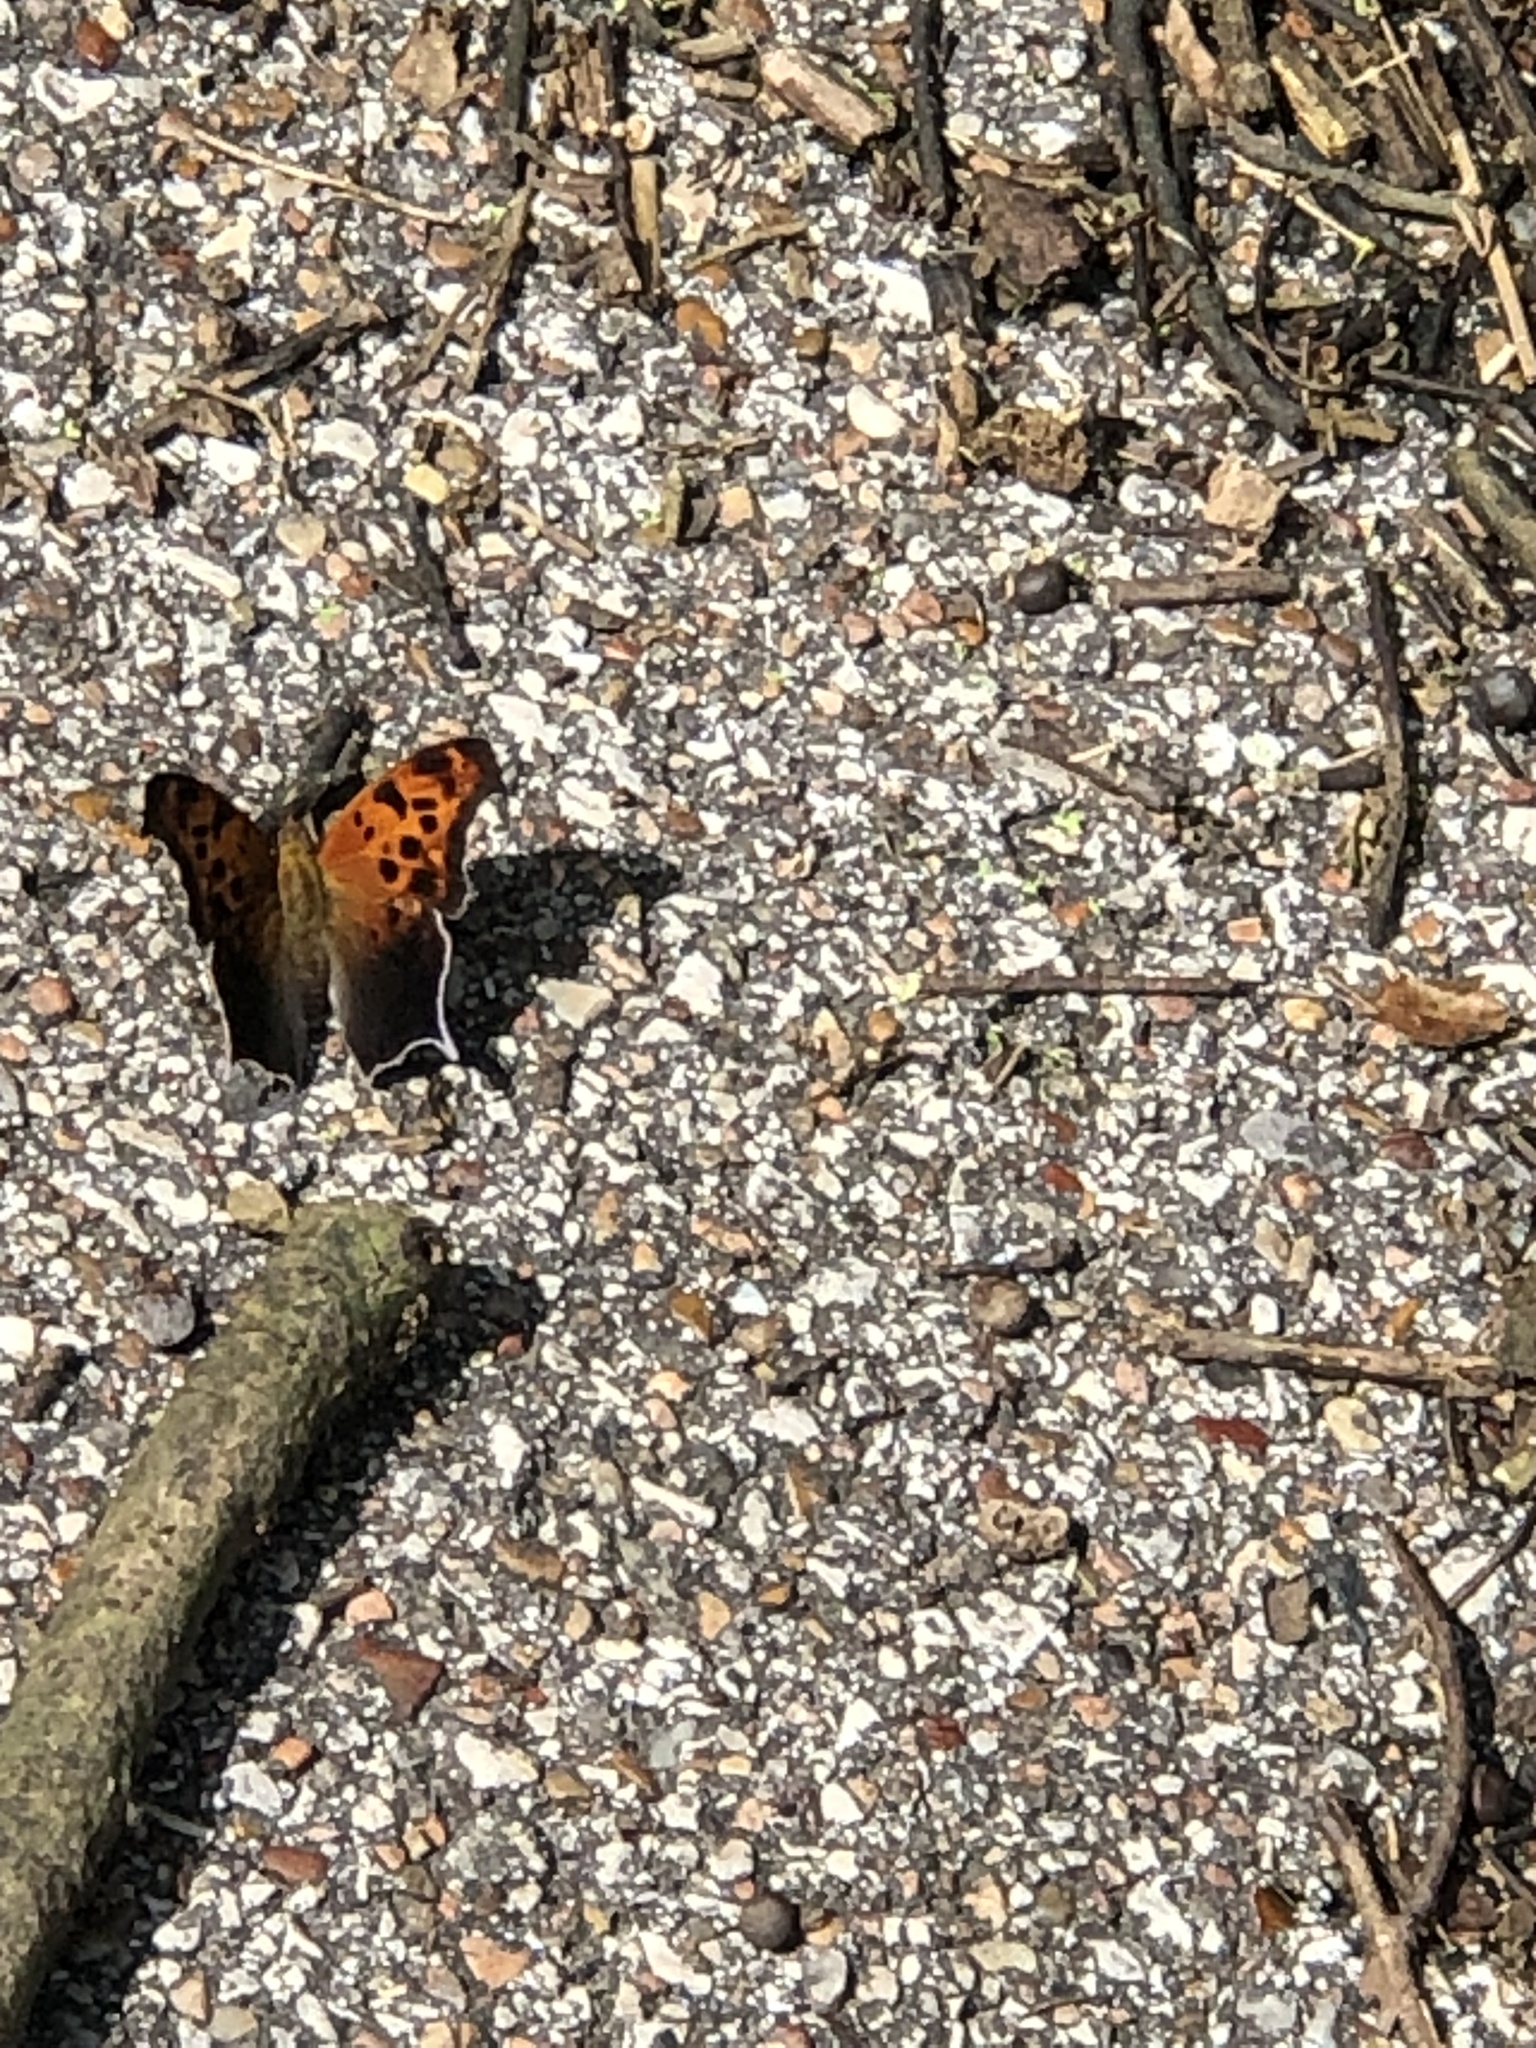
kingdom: Animalia
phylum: Arthropoda
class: Insecta
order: Lepidoptera
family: Nymphalidae
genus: Polygonia
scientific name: Polygonia interrogationis
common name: Question mark
